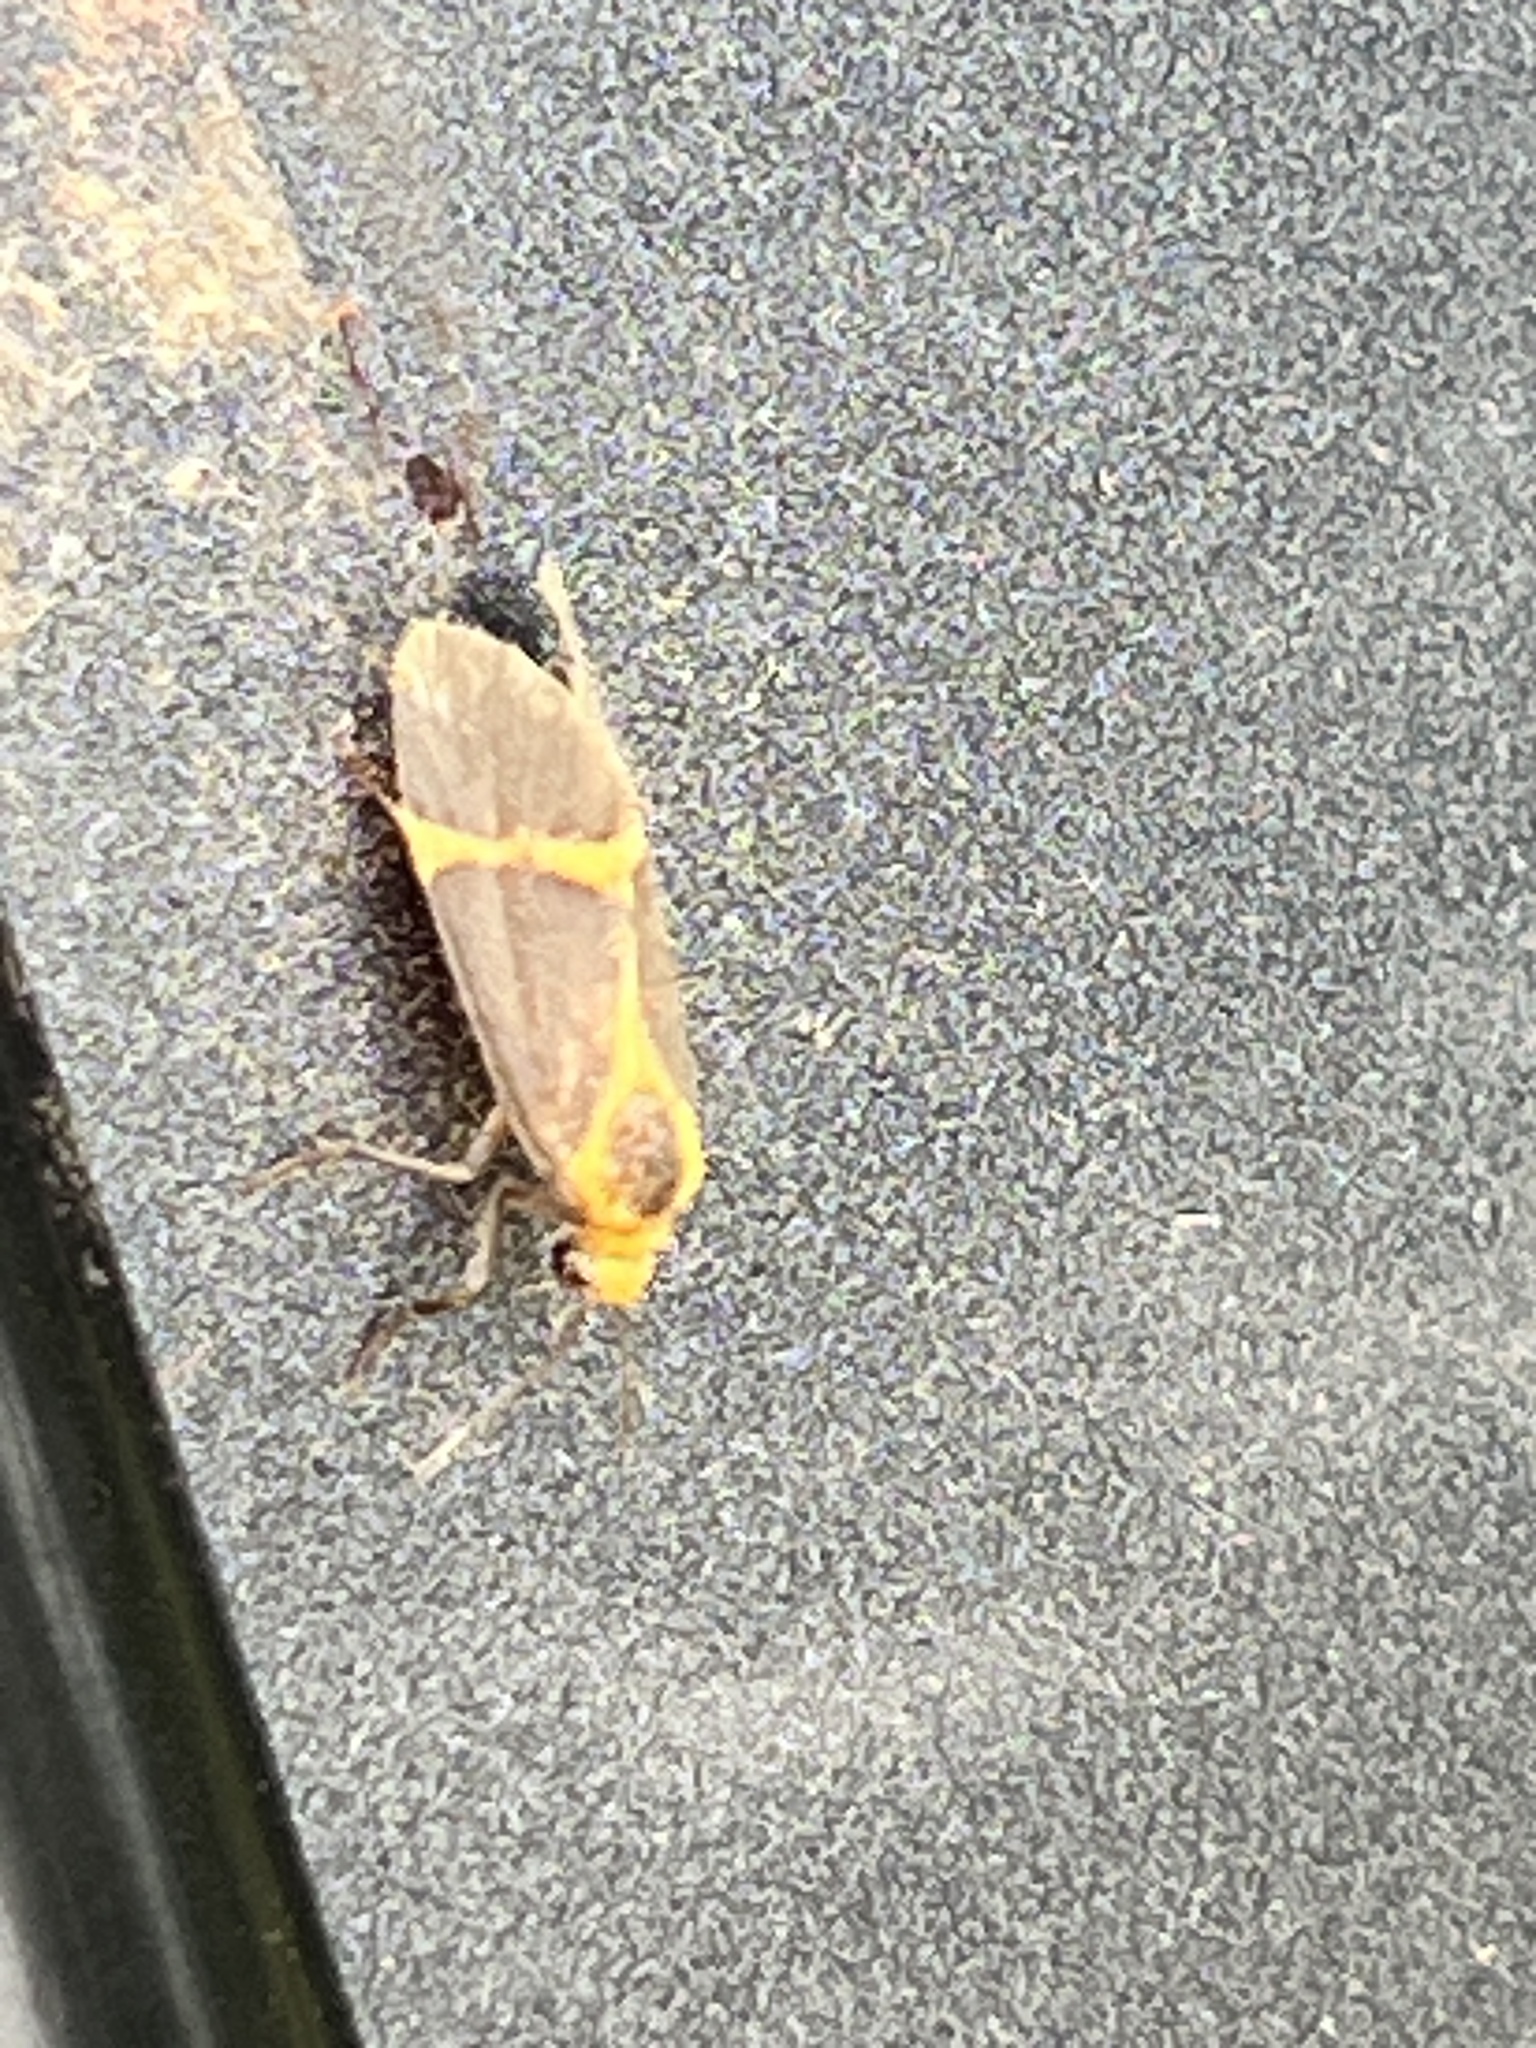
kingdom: Animalia
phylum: Arthropoda
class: Insecta
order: Lepidoptera
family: Erebidae
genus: Cisthene
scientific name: Cisthene tenuifascia
